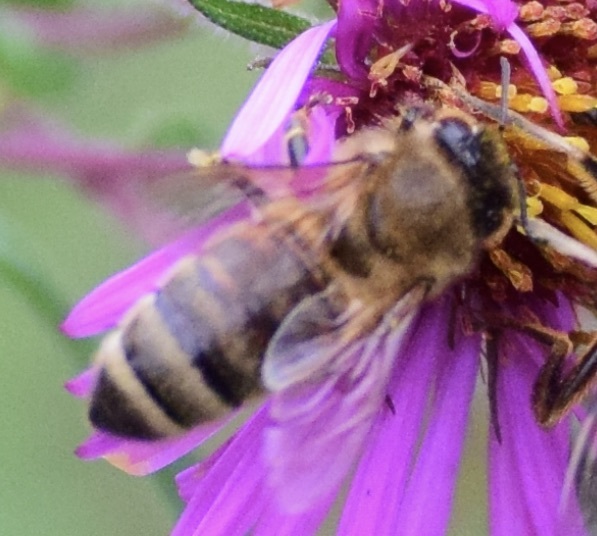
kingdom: Animalia
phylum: Arthropoda
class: Insecta
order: Hymenoptera
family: Apidae
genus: Apis
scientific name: Apis mellifera
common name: Honey bee
